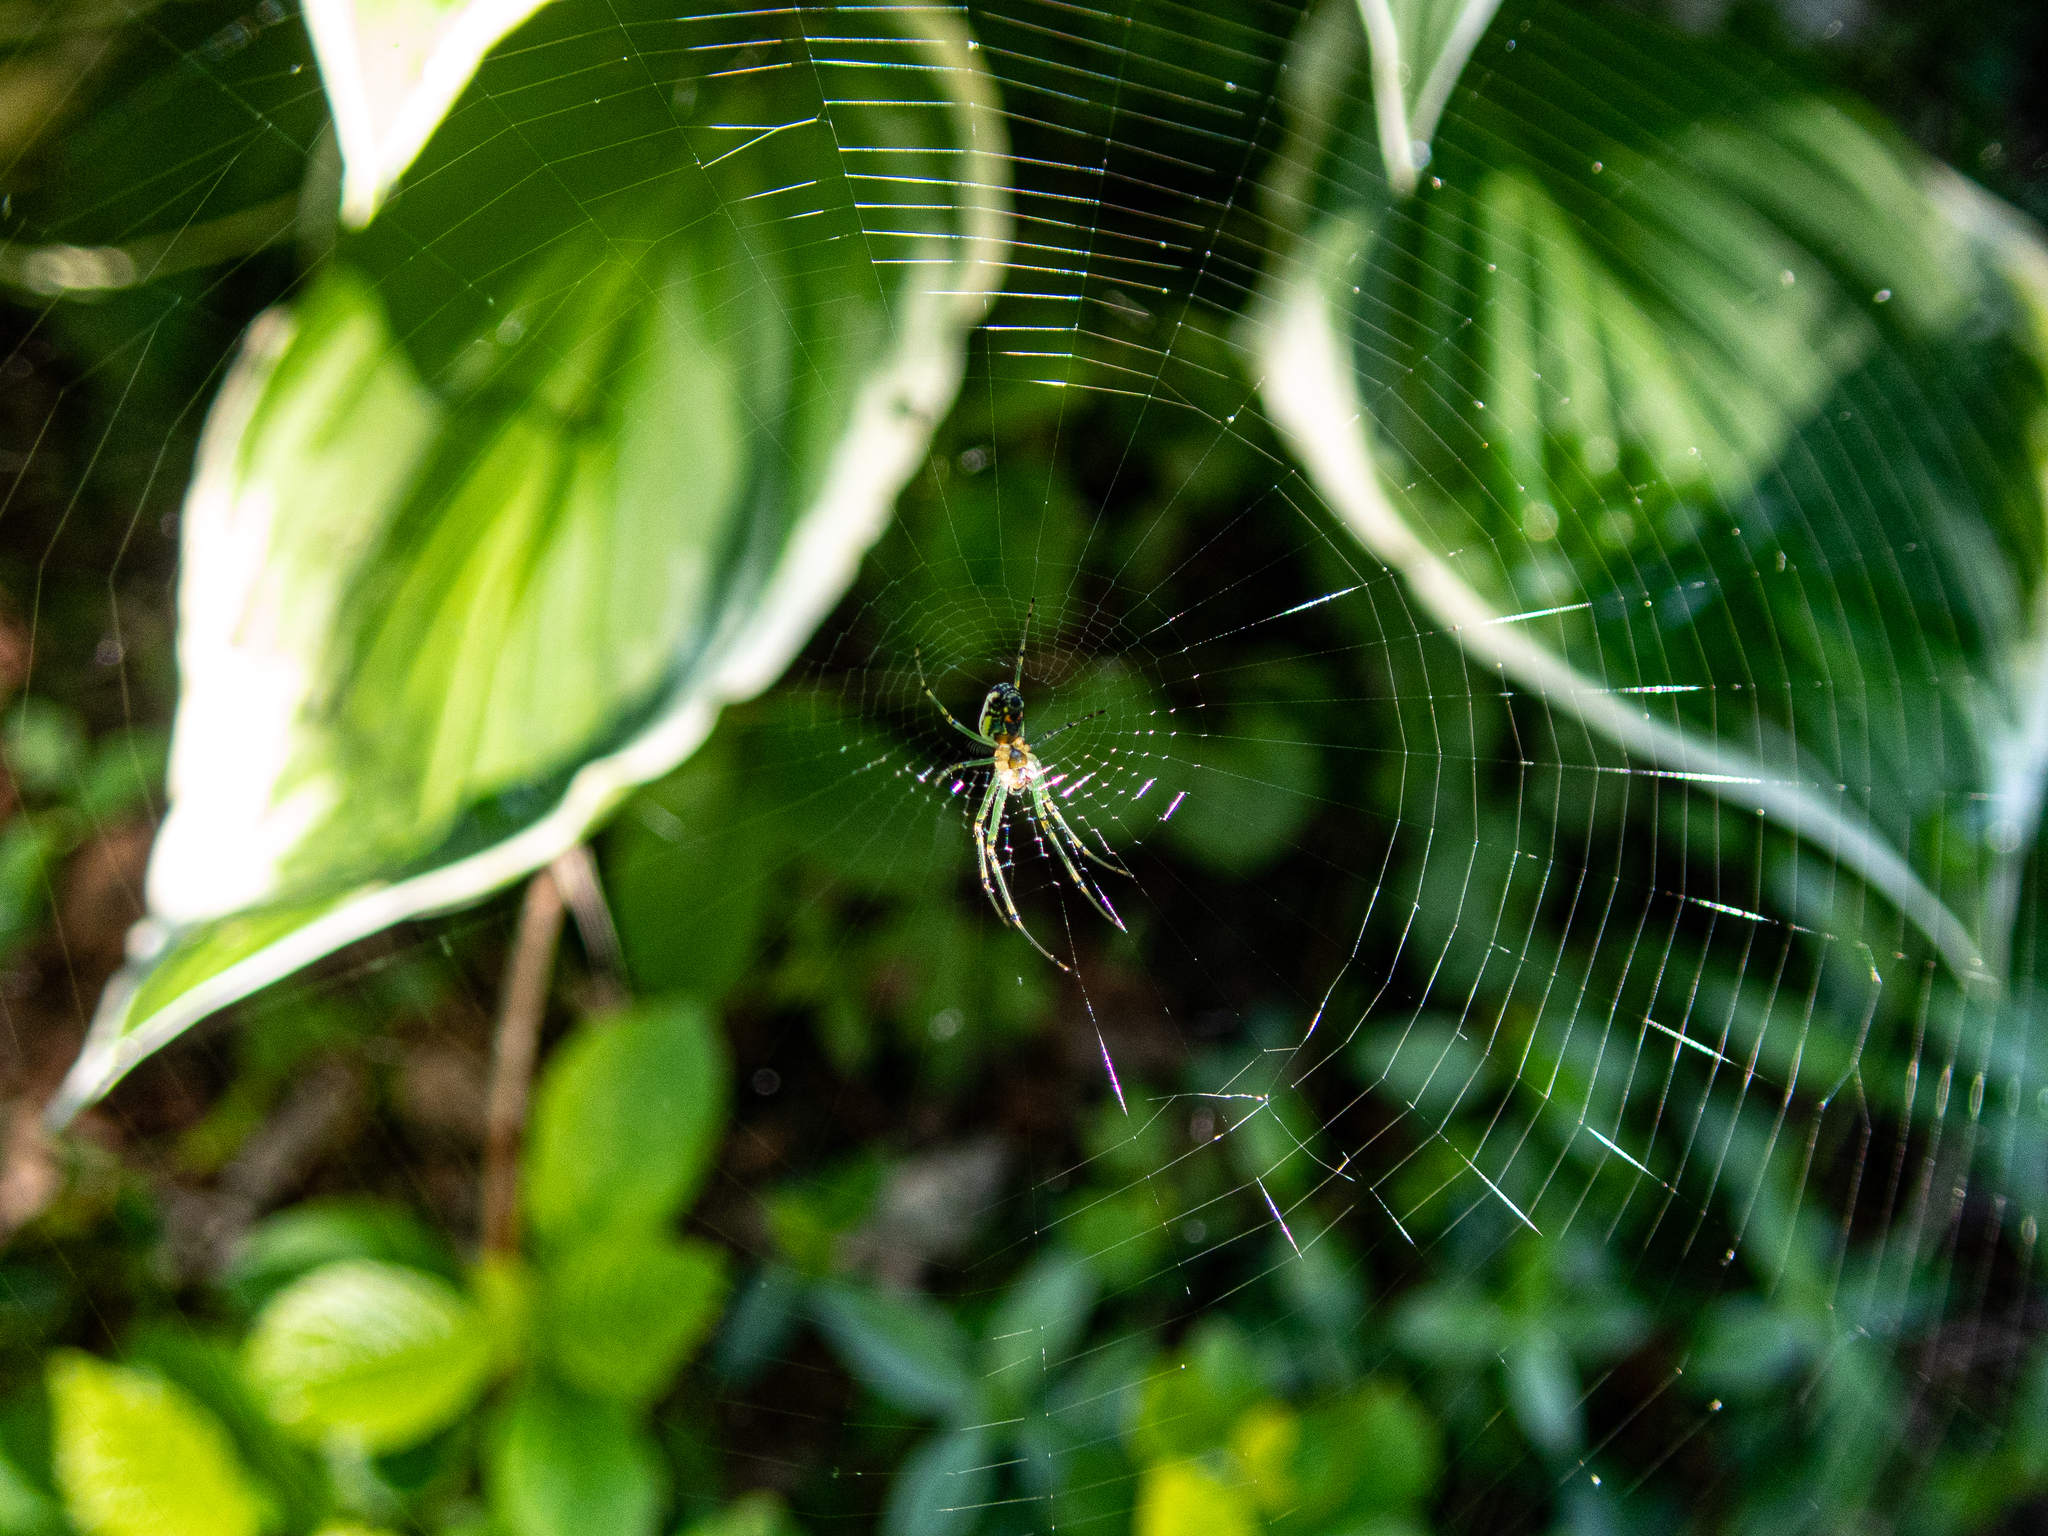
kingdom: Animalia
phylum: Arthropoda
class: Arachnida
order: Araneae
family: Tetragnathidae
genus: Leucauge
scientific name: Leucauge venusta
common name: Longjawed orb weavers
